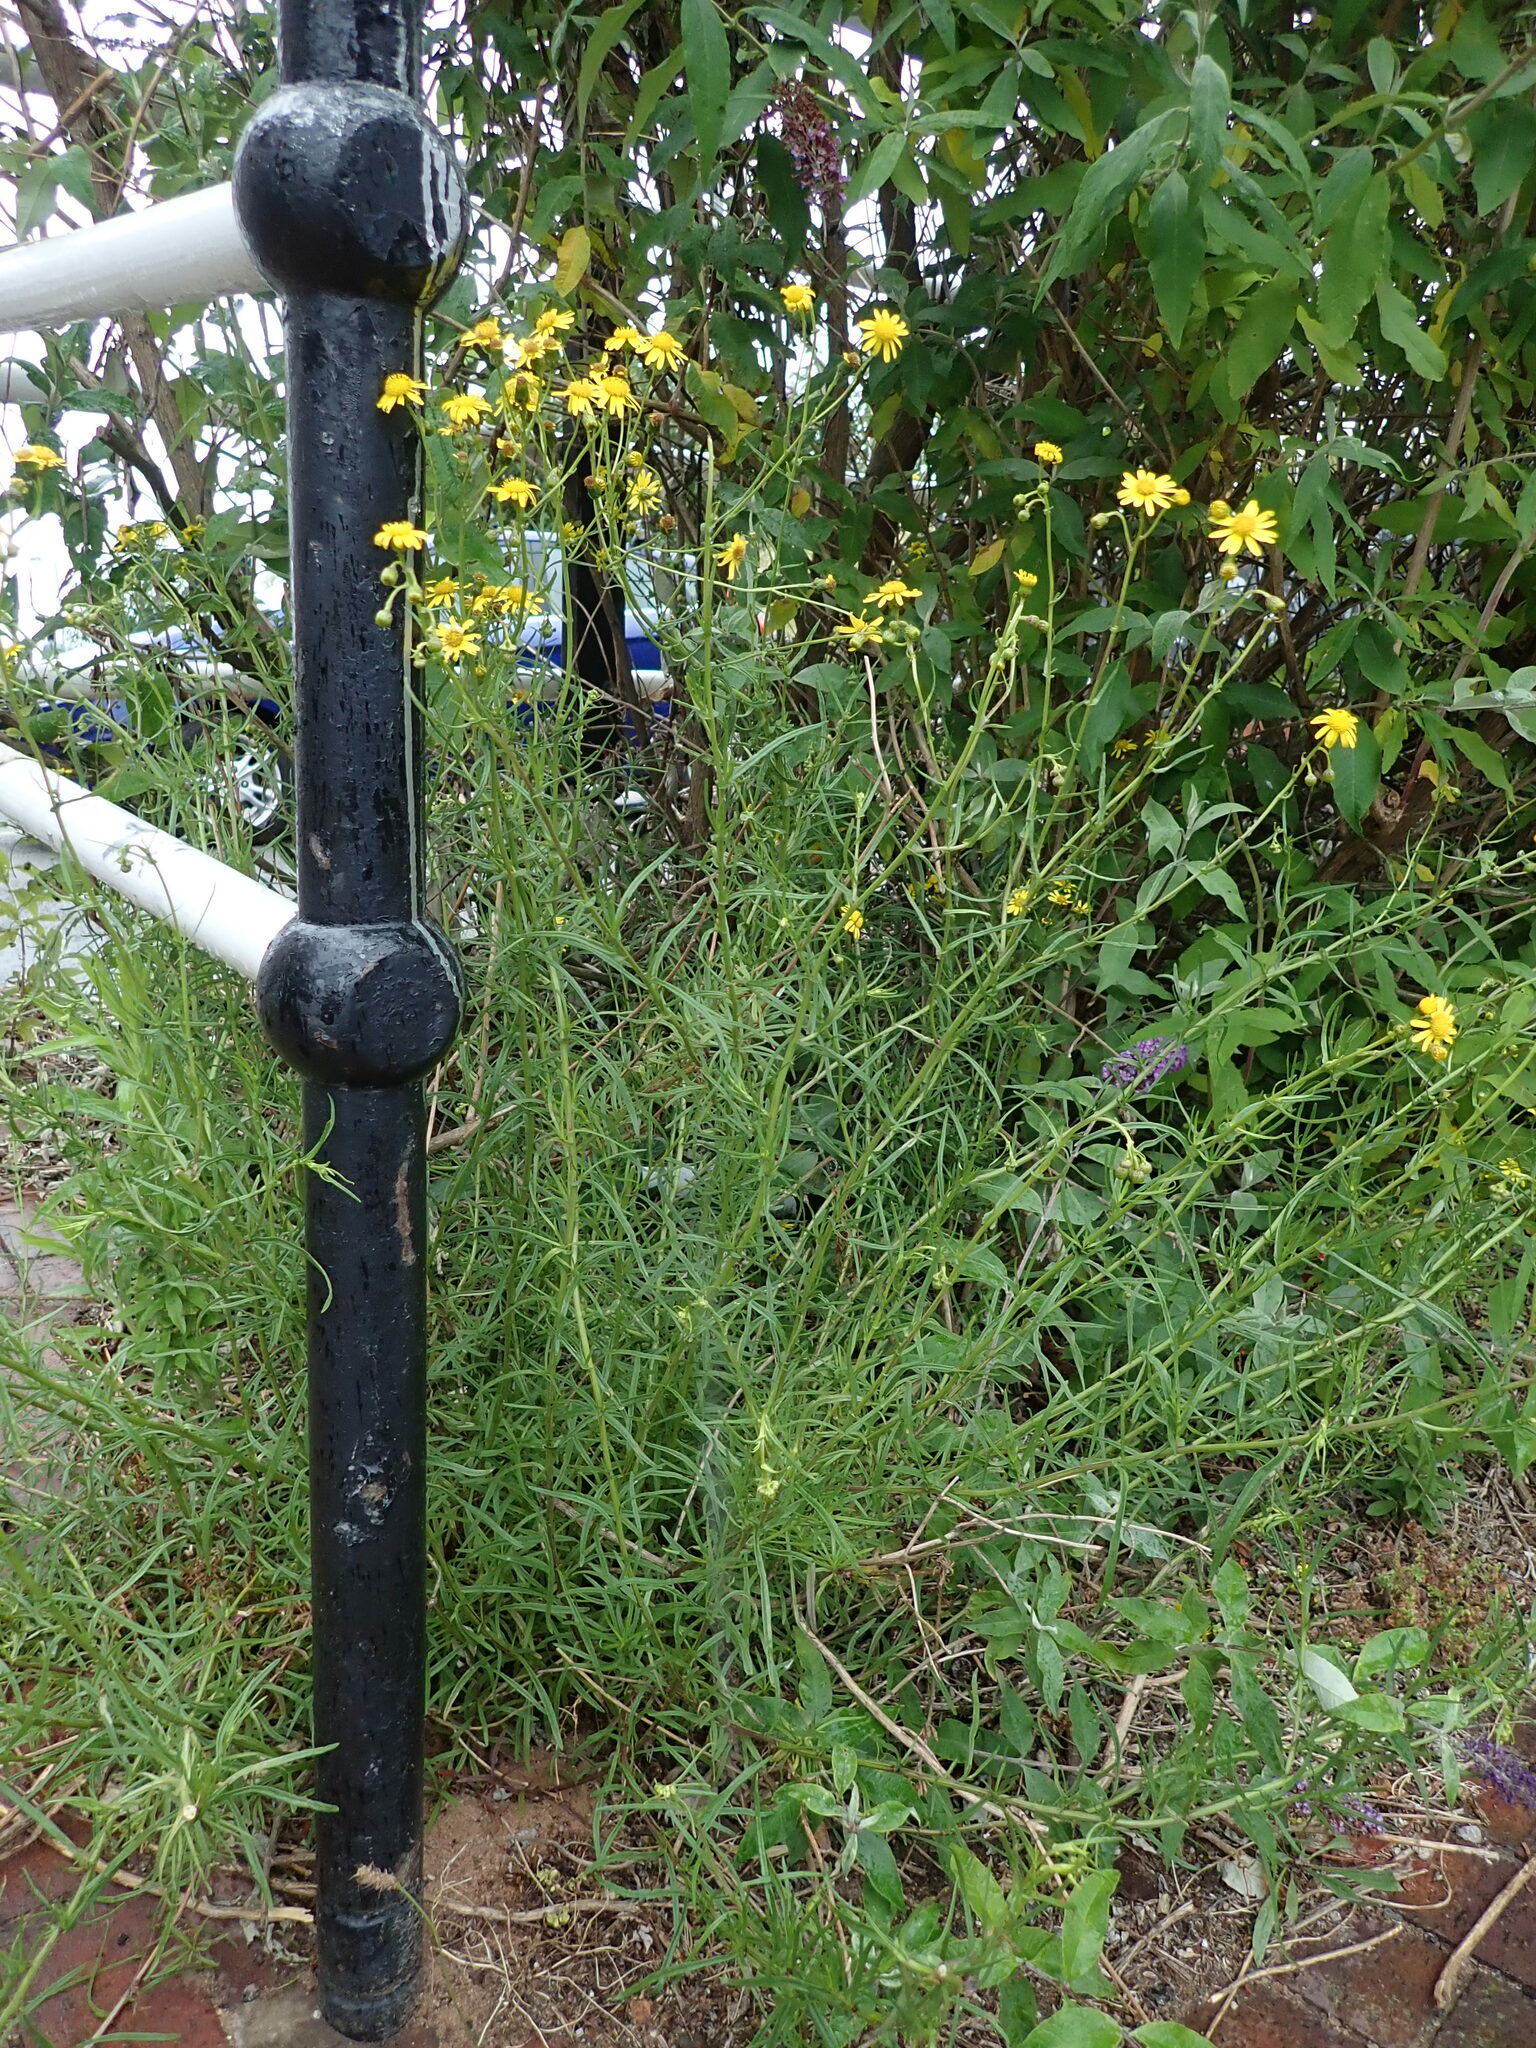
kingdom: Plantae
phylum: Tracheophyta
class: Magnoliopsida
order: Asterales
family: Asteraceae
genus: Senecio
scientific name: Senecio inaequidens
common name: Narrow-leaved ragwort
